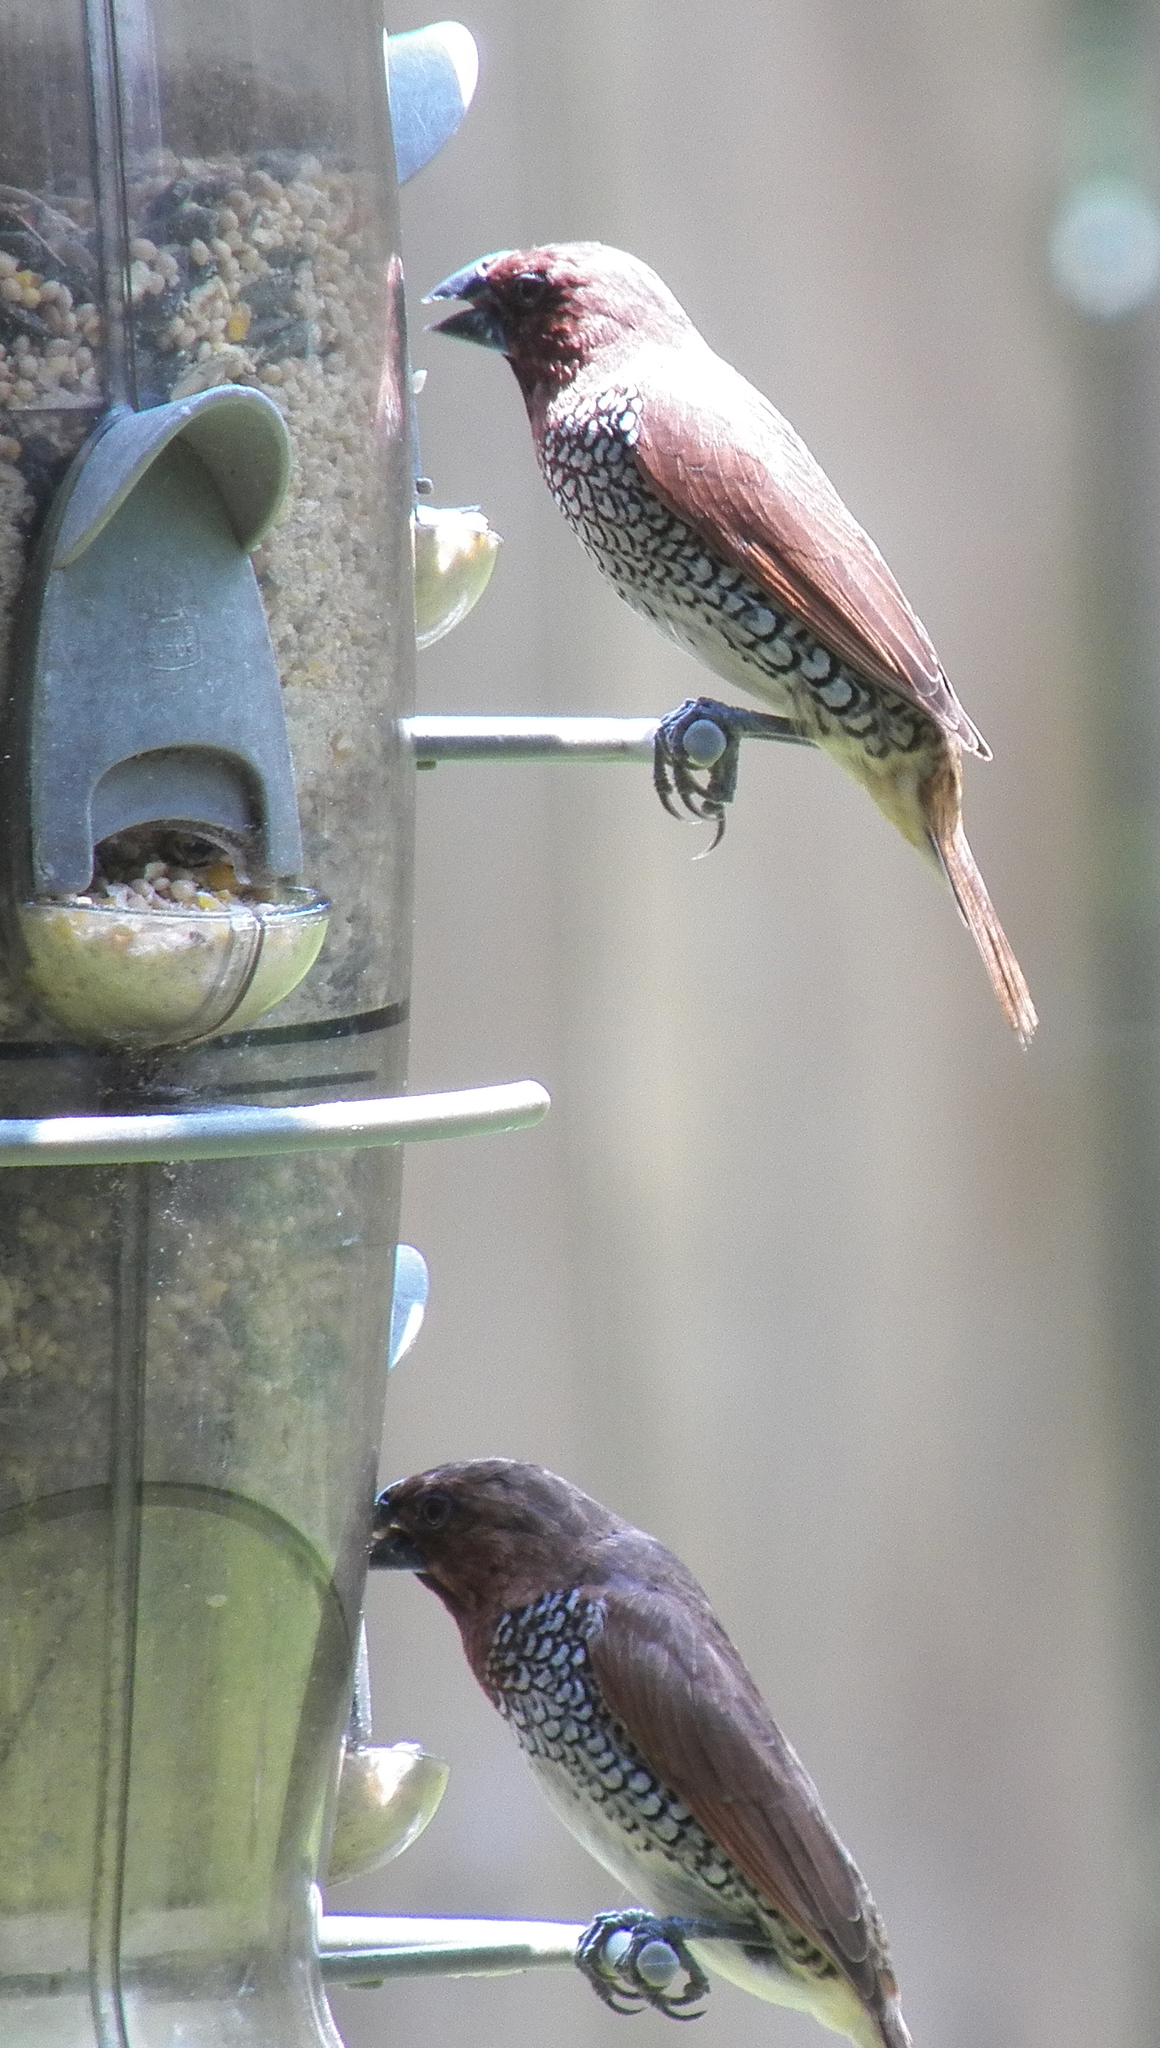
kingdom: Animalia
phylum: Chordata
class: Aves
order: Passeriformes
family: Estrildidae
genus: Lonchura
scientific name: Lonchura punctulata
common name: Scaly-breasted munia
